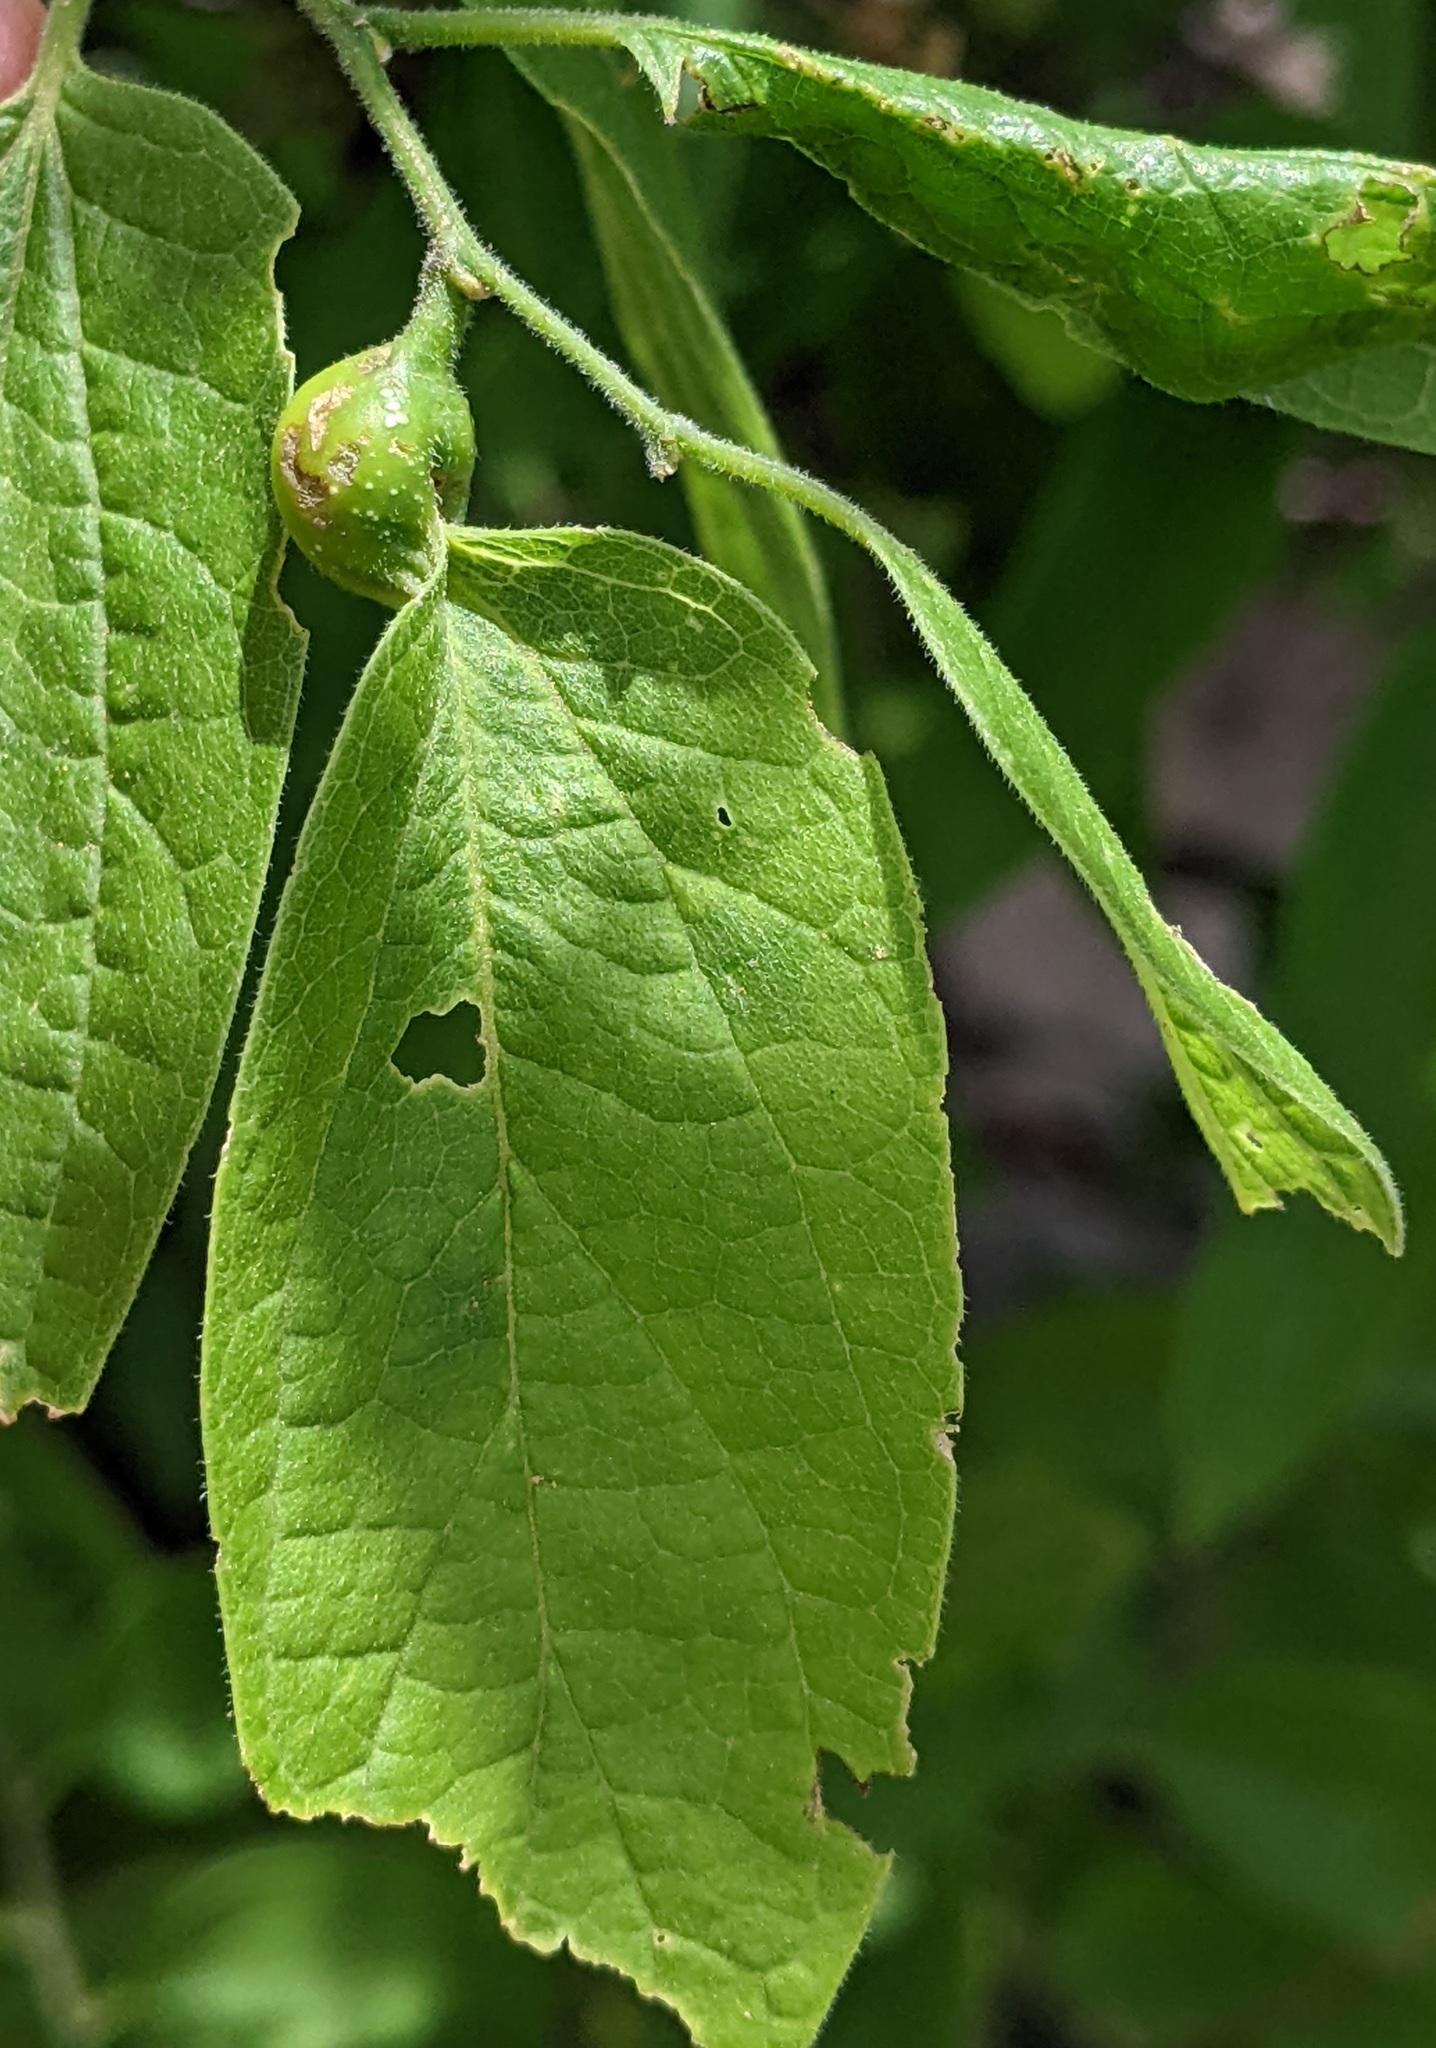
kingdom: Animalia
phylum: Arthropoda
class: Insecta
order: Hemiptera
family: Aphalaridae
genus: Pachypsylla
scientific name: Pachypsylla venusta
